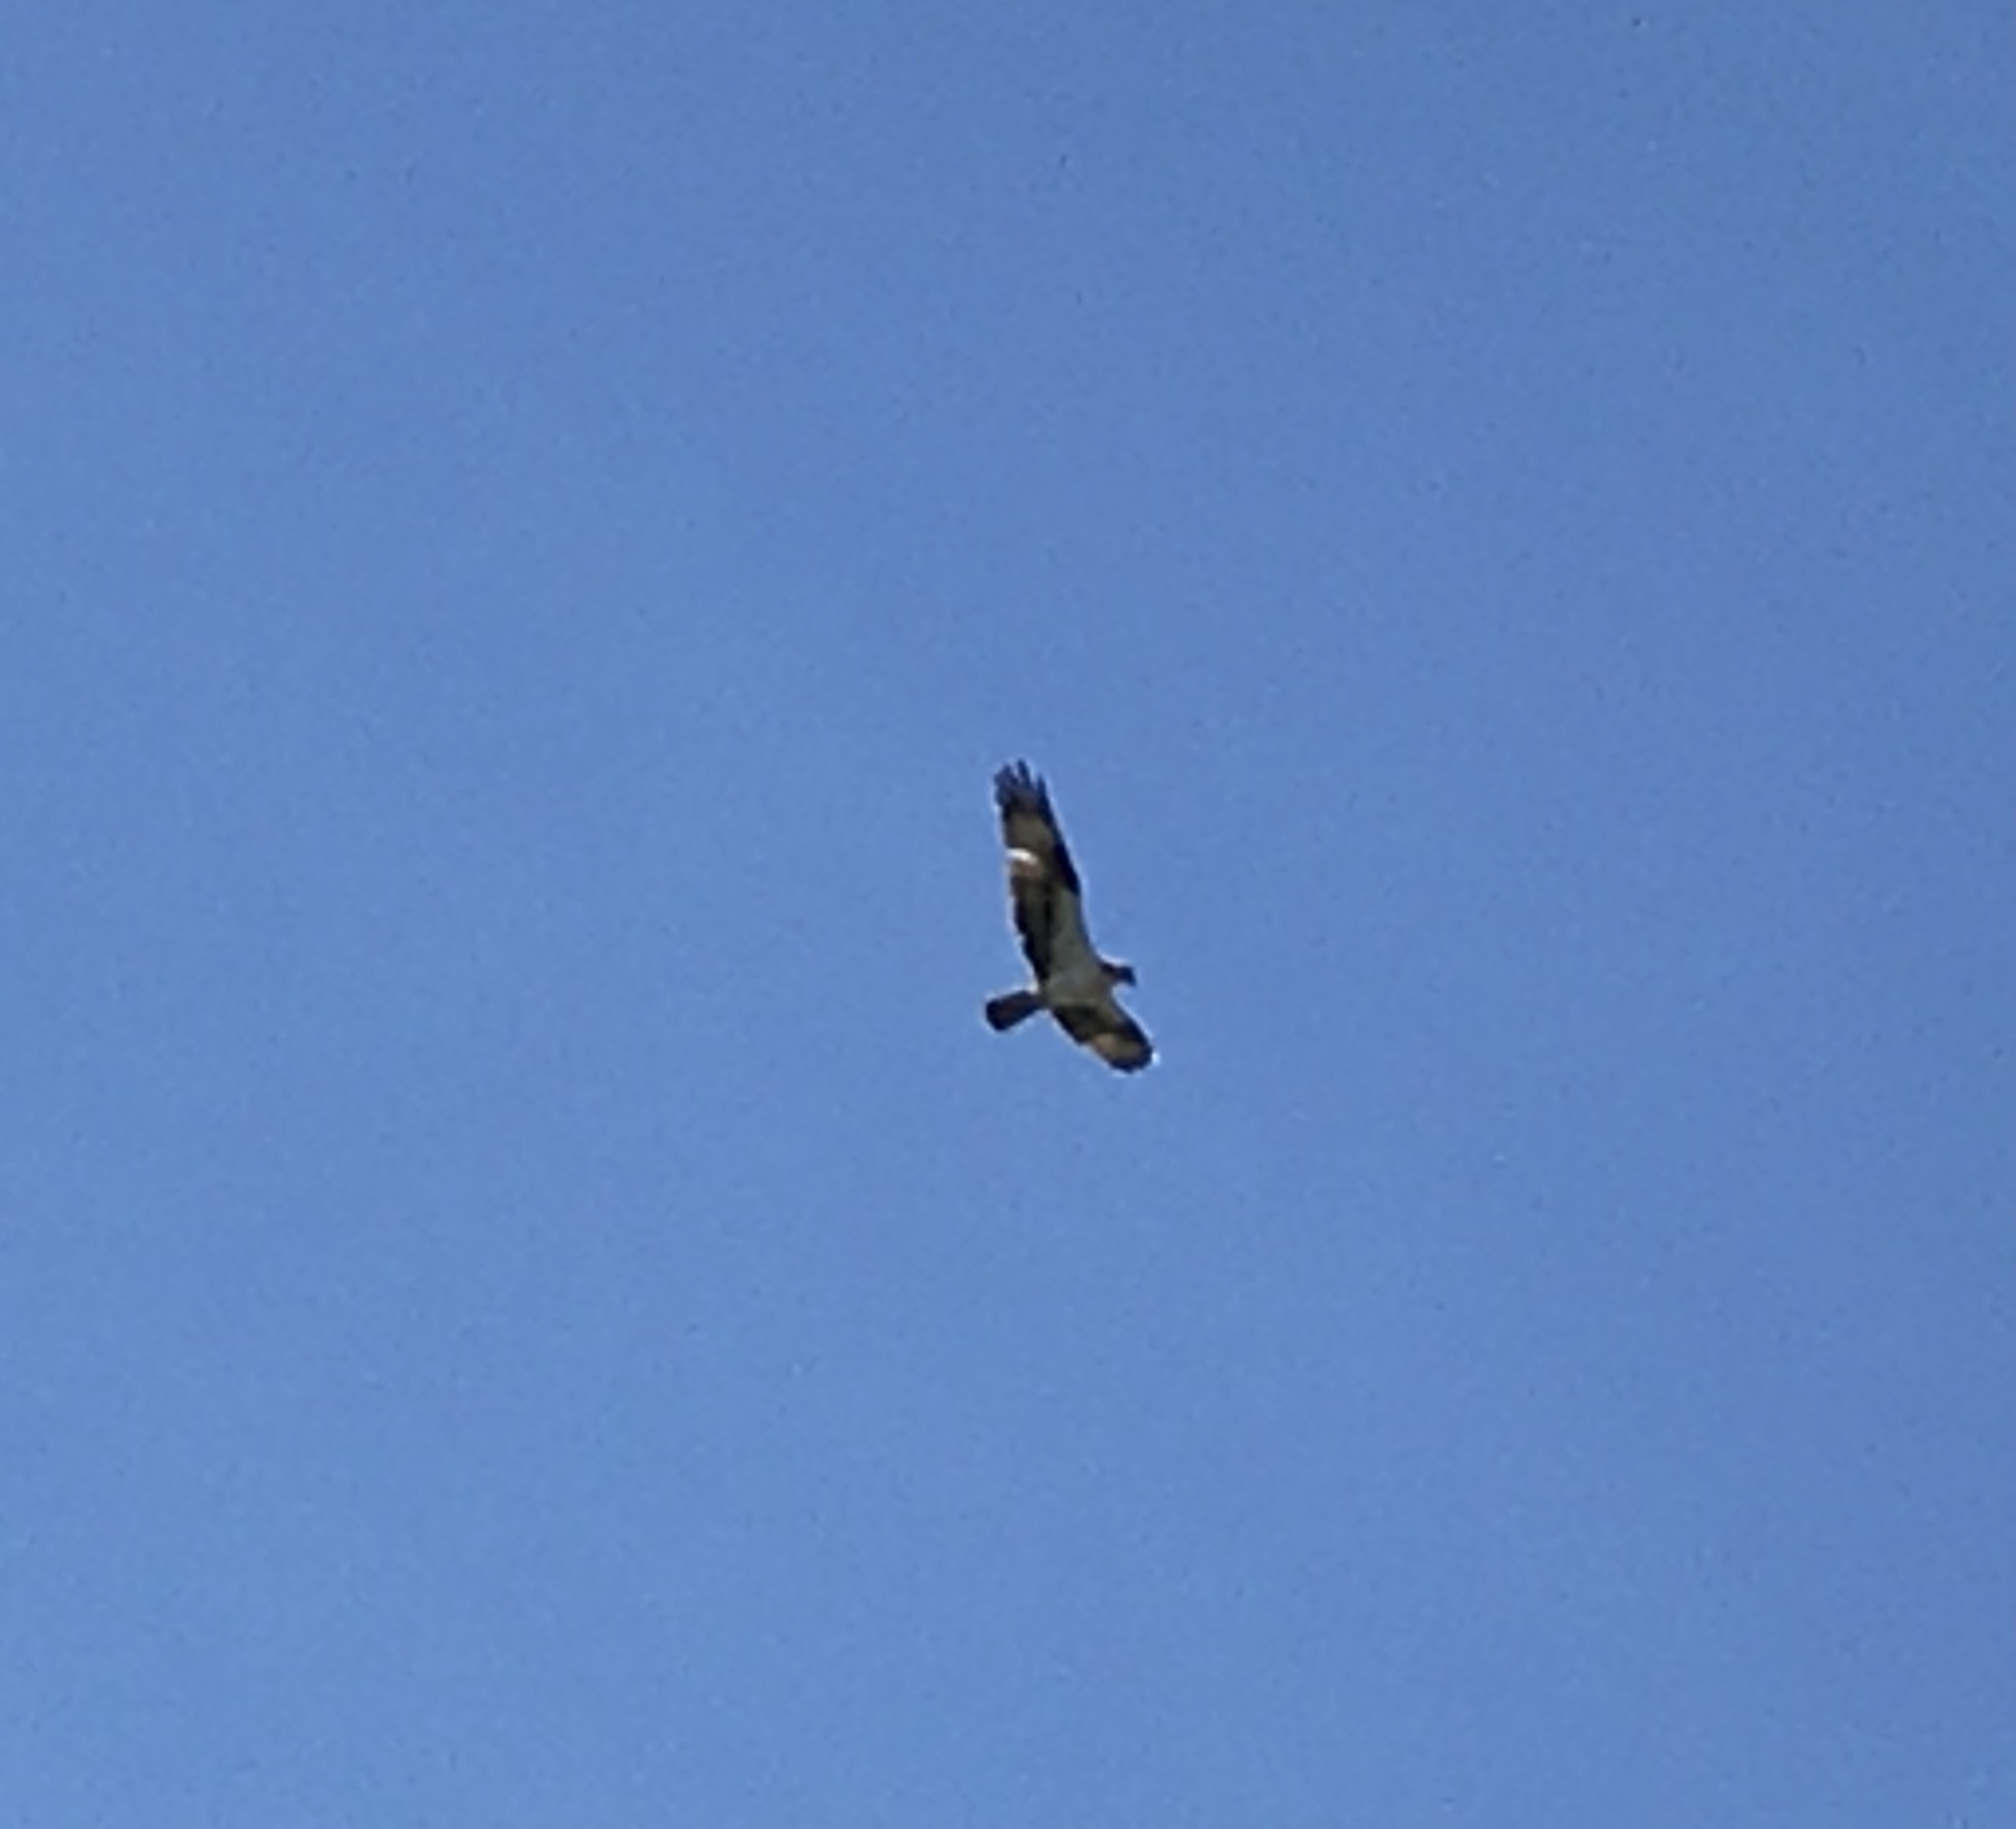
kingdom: Animalia
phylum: Chordata
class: Aves
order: Accipitriformes
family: Pandionidae
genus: Pandion
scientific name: Pandion haliaetus
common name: Osprey
